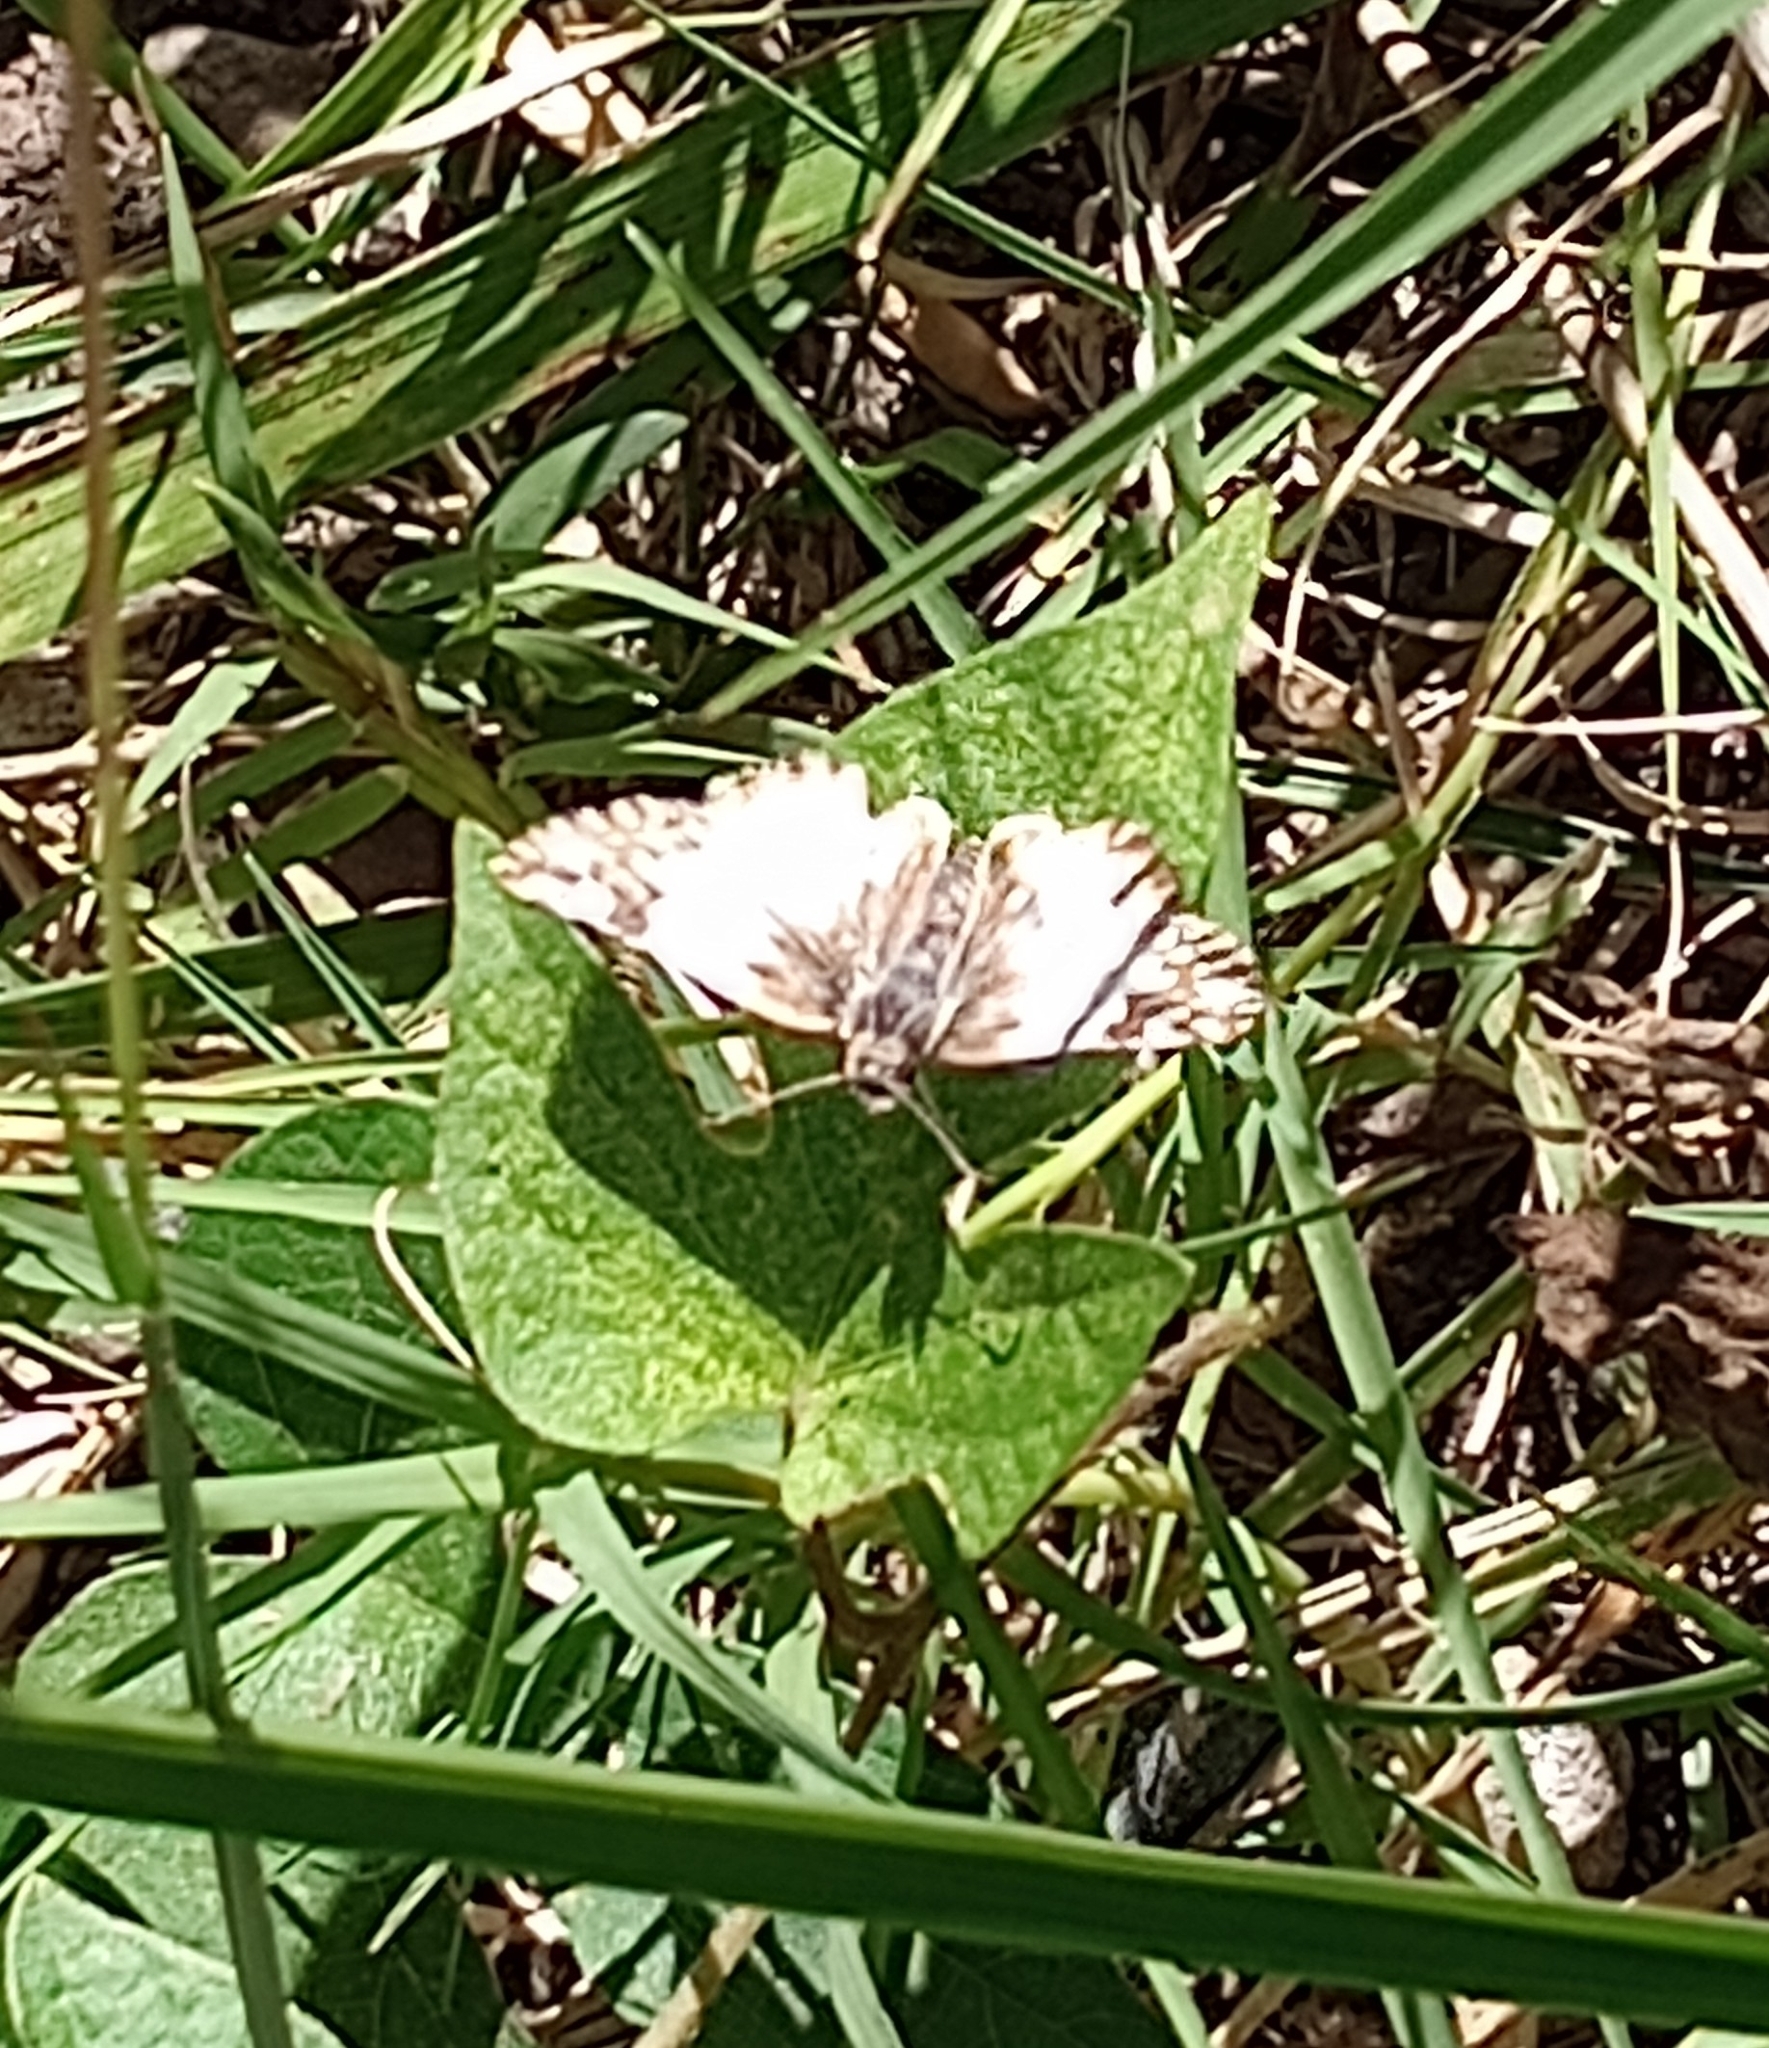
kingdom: Animalia
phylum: Arthropoda
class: Insecta
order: Lepidoptera
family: Hesperiidae
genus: Heliopetes
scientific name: Heliopetes omrina
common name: Stained white-skipper
